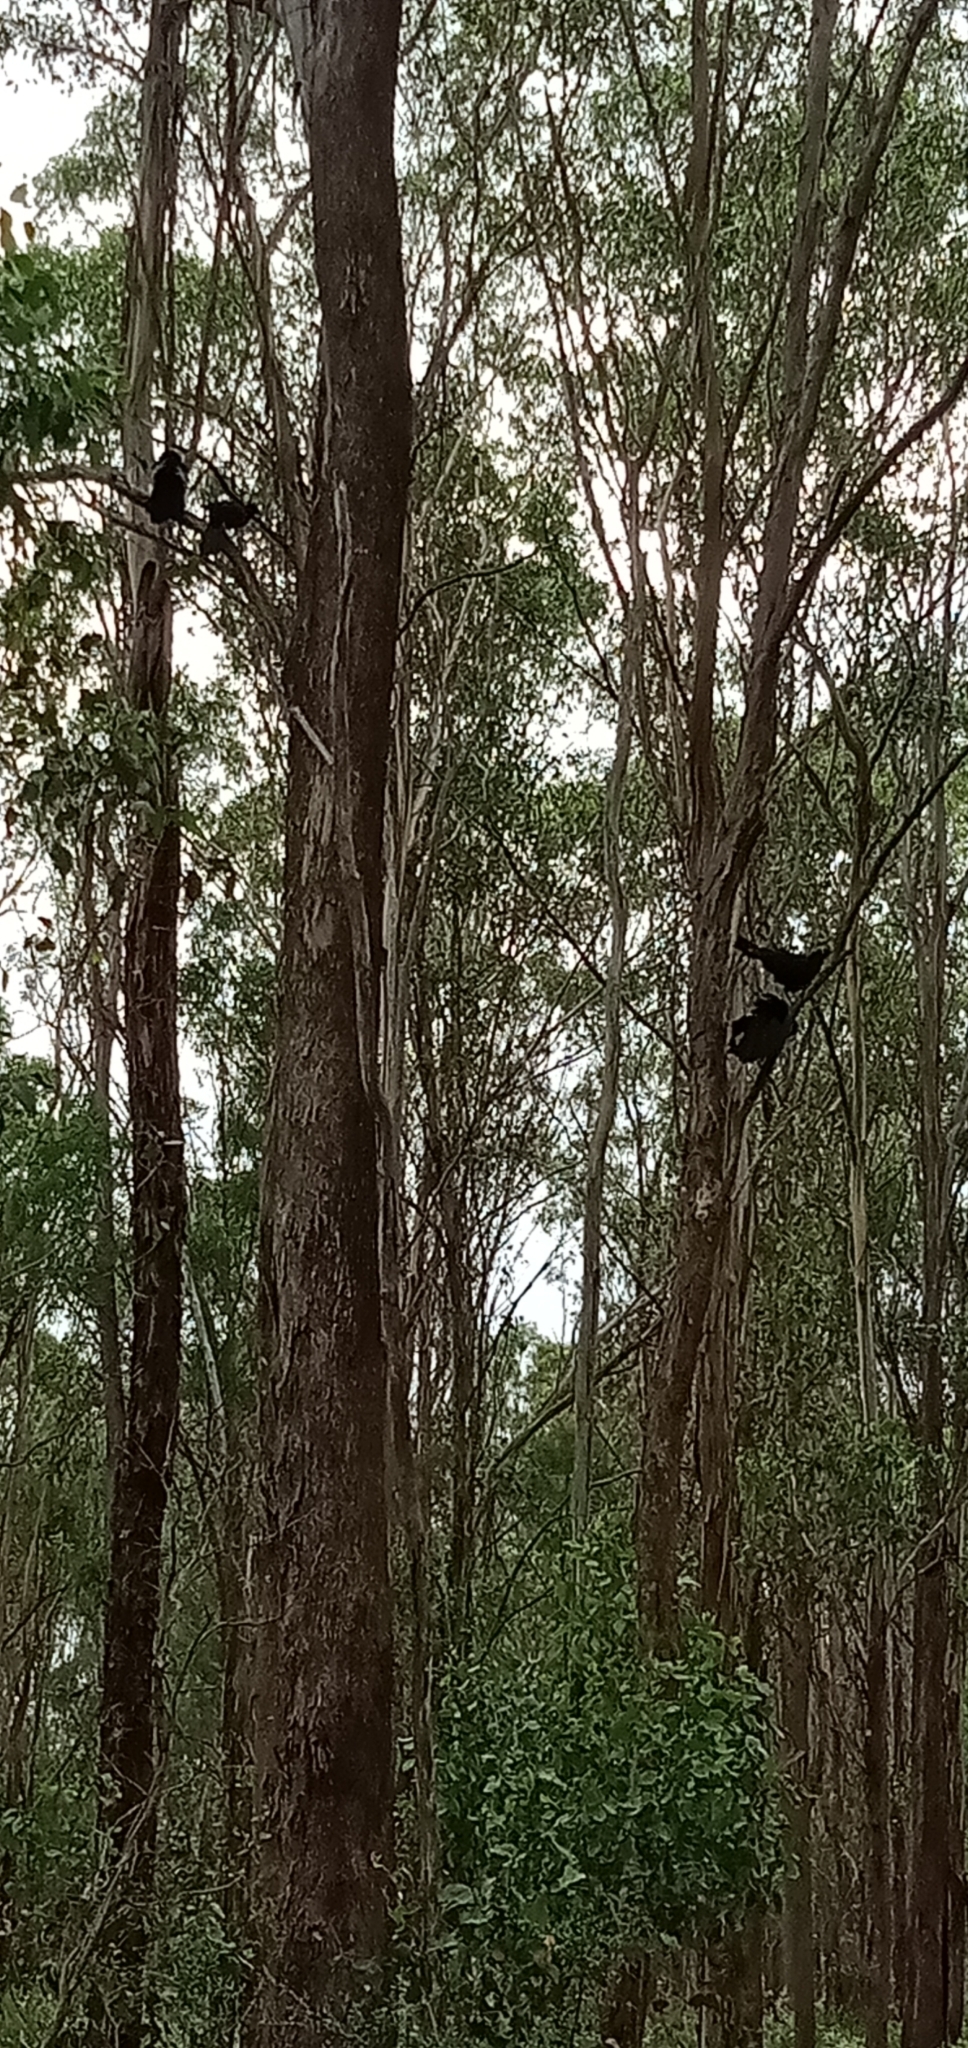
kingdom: Animalia
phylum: Chordata
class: Aves
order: Passeriformes
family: Corcoracidae
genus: Corcorax
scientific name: Corcorax melanoramphos
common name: White-winged chough
